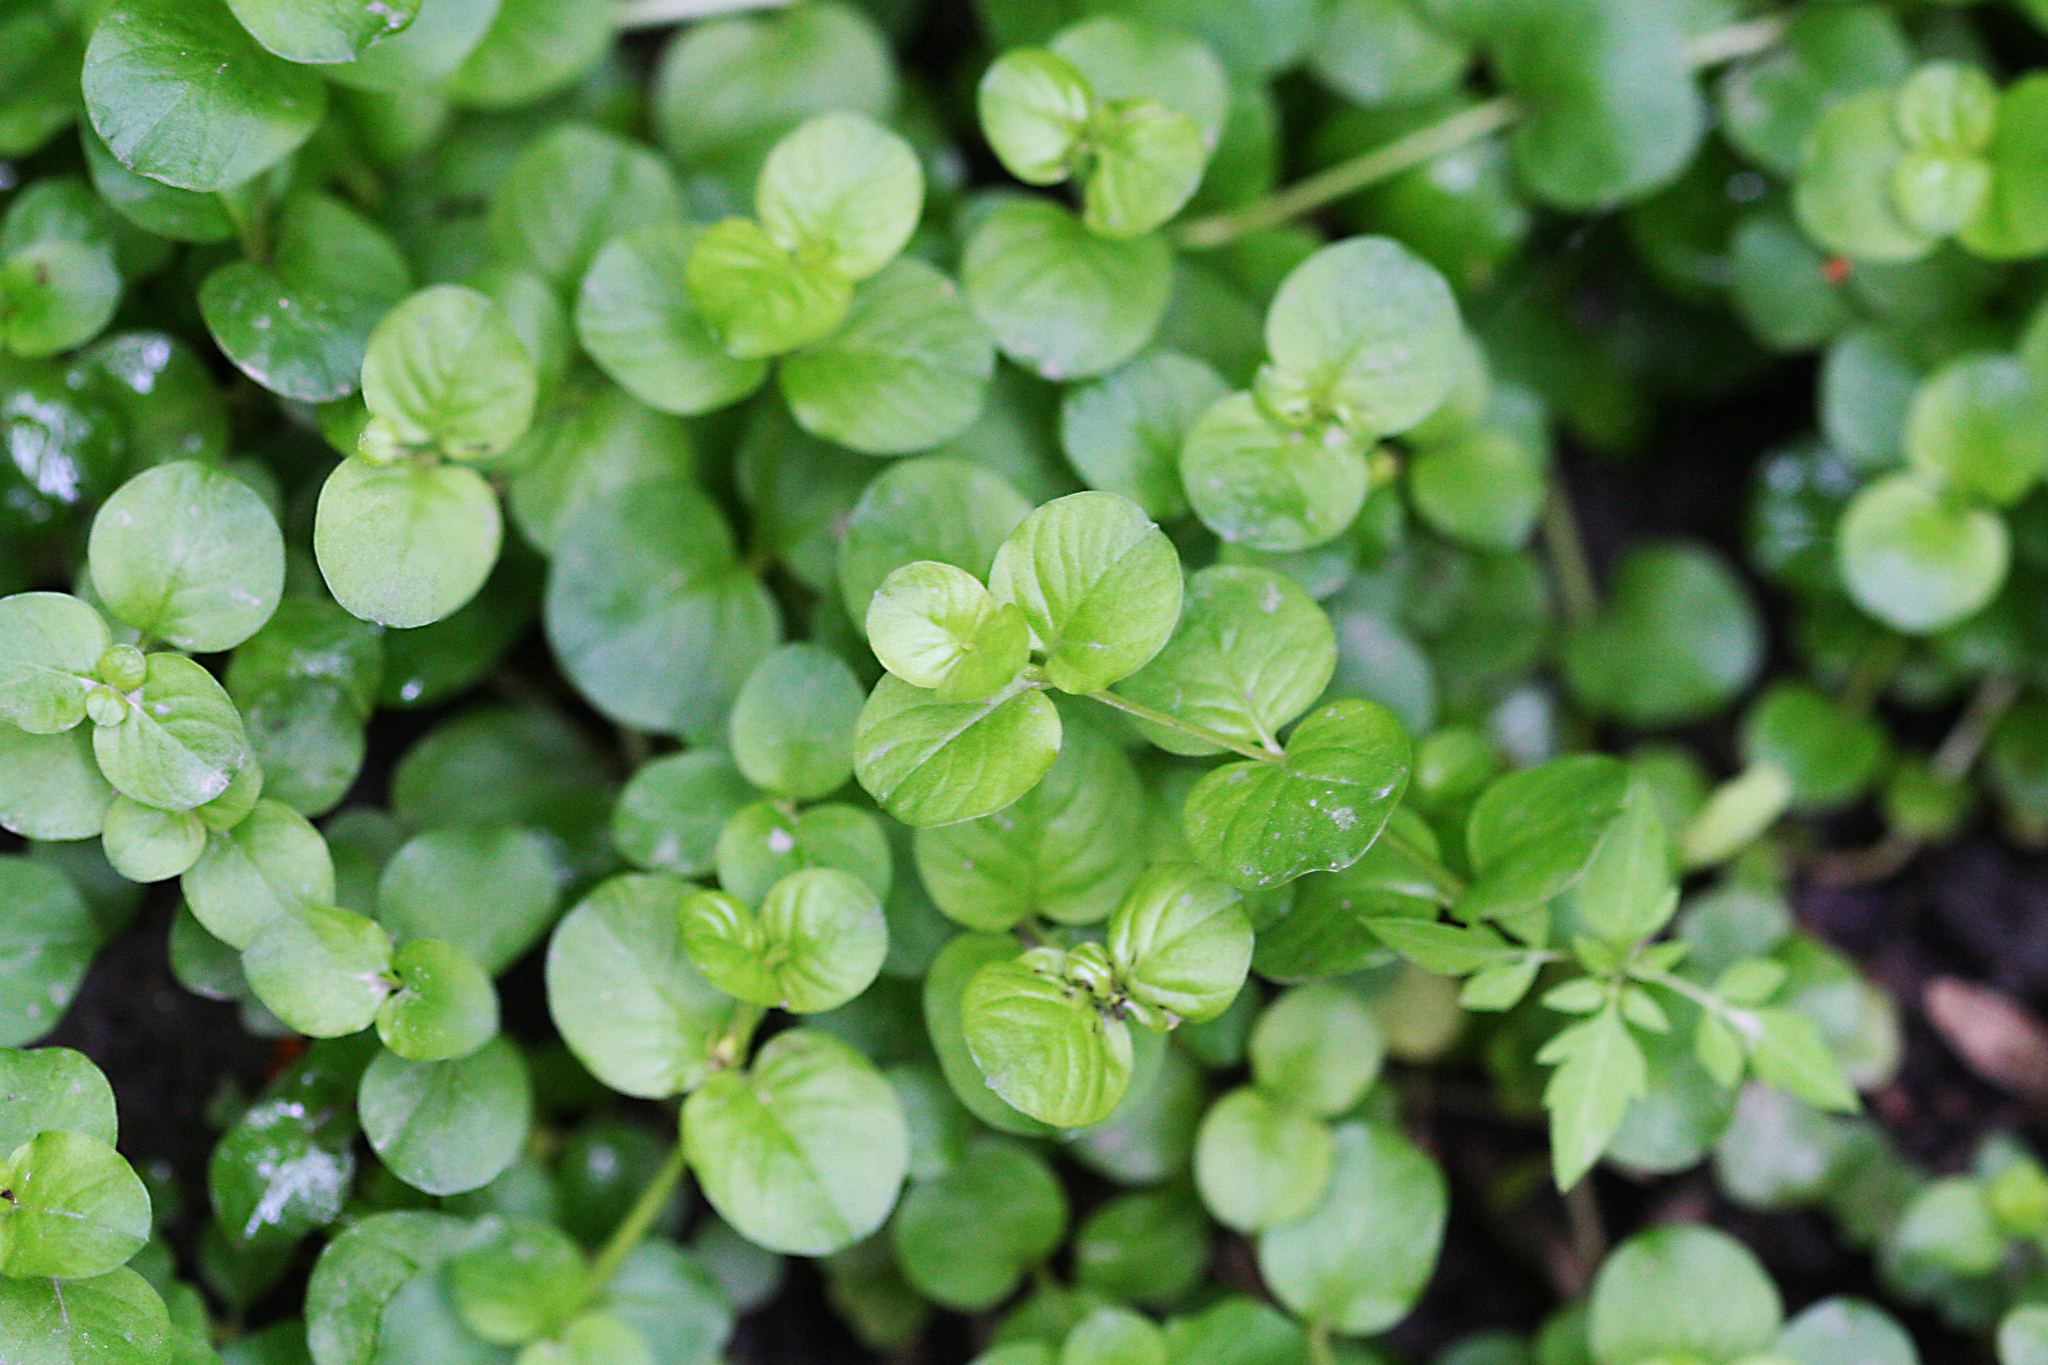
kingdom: Plantae
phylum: Tracheophyta
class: Magnoliopsida
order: Ericales
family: Primulaceae
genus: Lysimachia
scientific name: Lysimachia nummularia
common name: Moneywort
